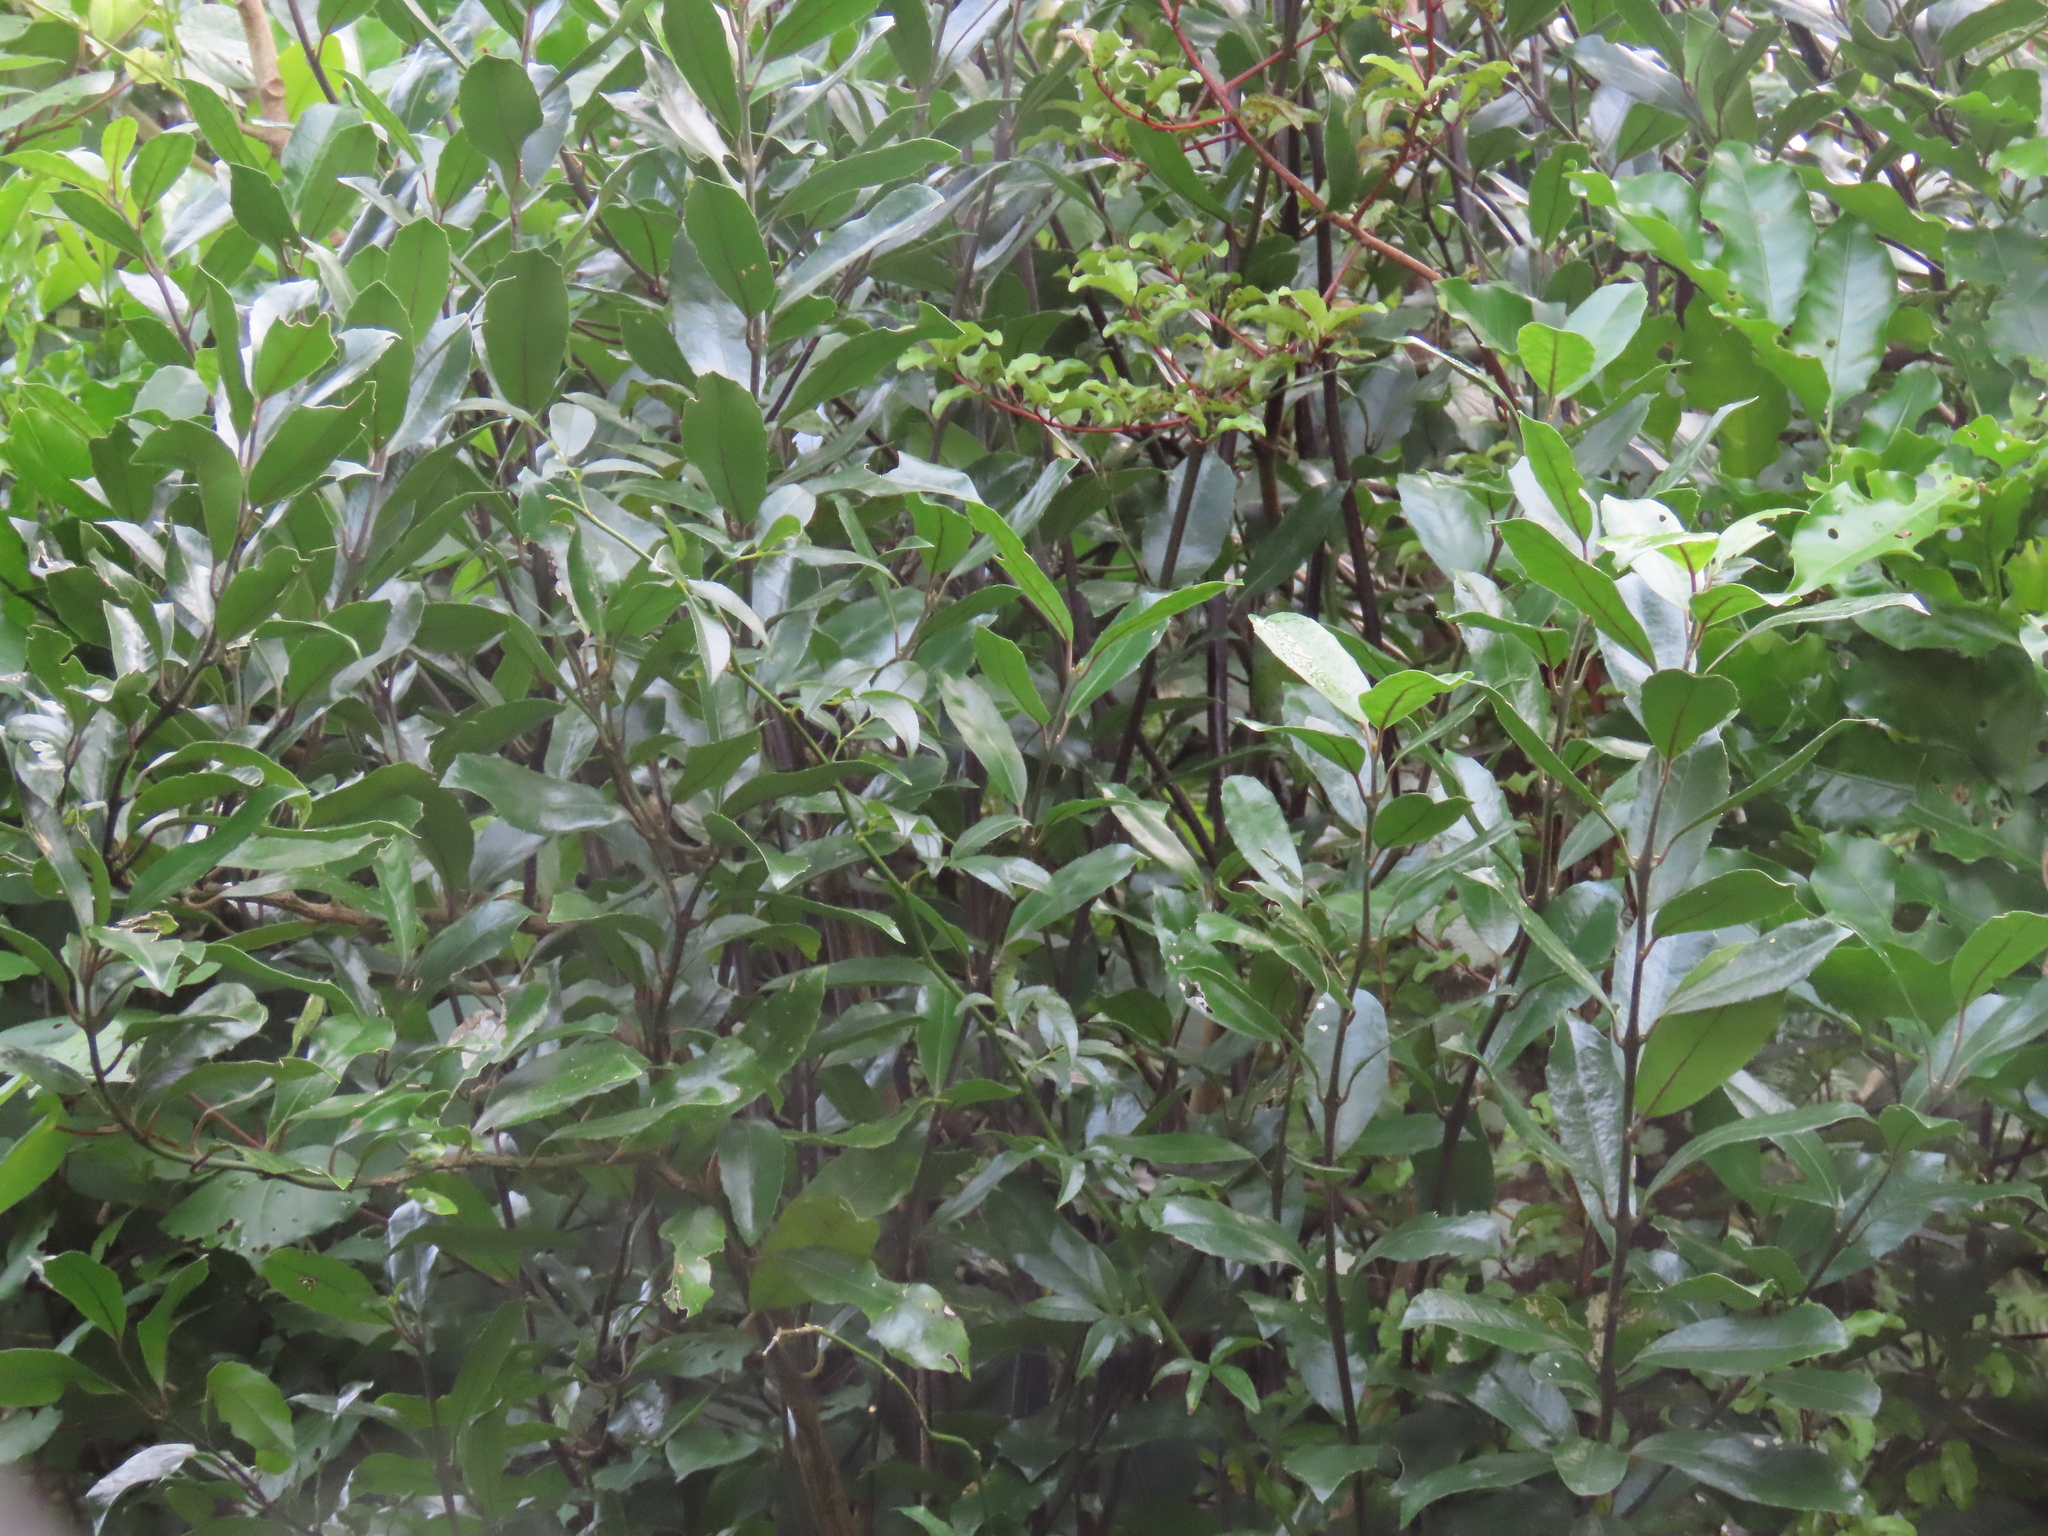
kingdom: Plantae
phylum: Tracheophyta
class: Magnoliopsida
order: Laurales
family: Monimiaceae
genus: Hedycarya
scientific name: Hedycarya arborea
